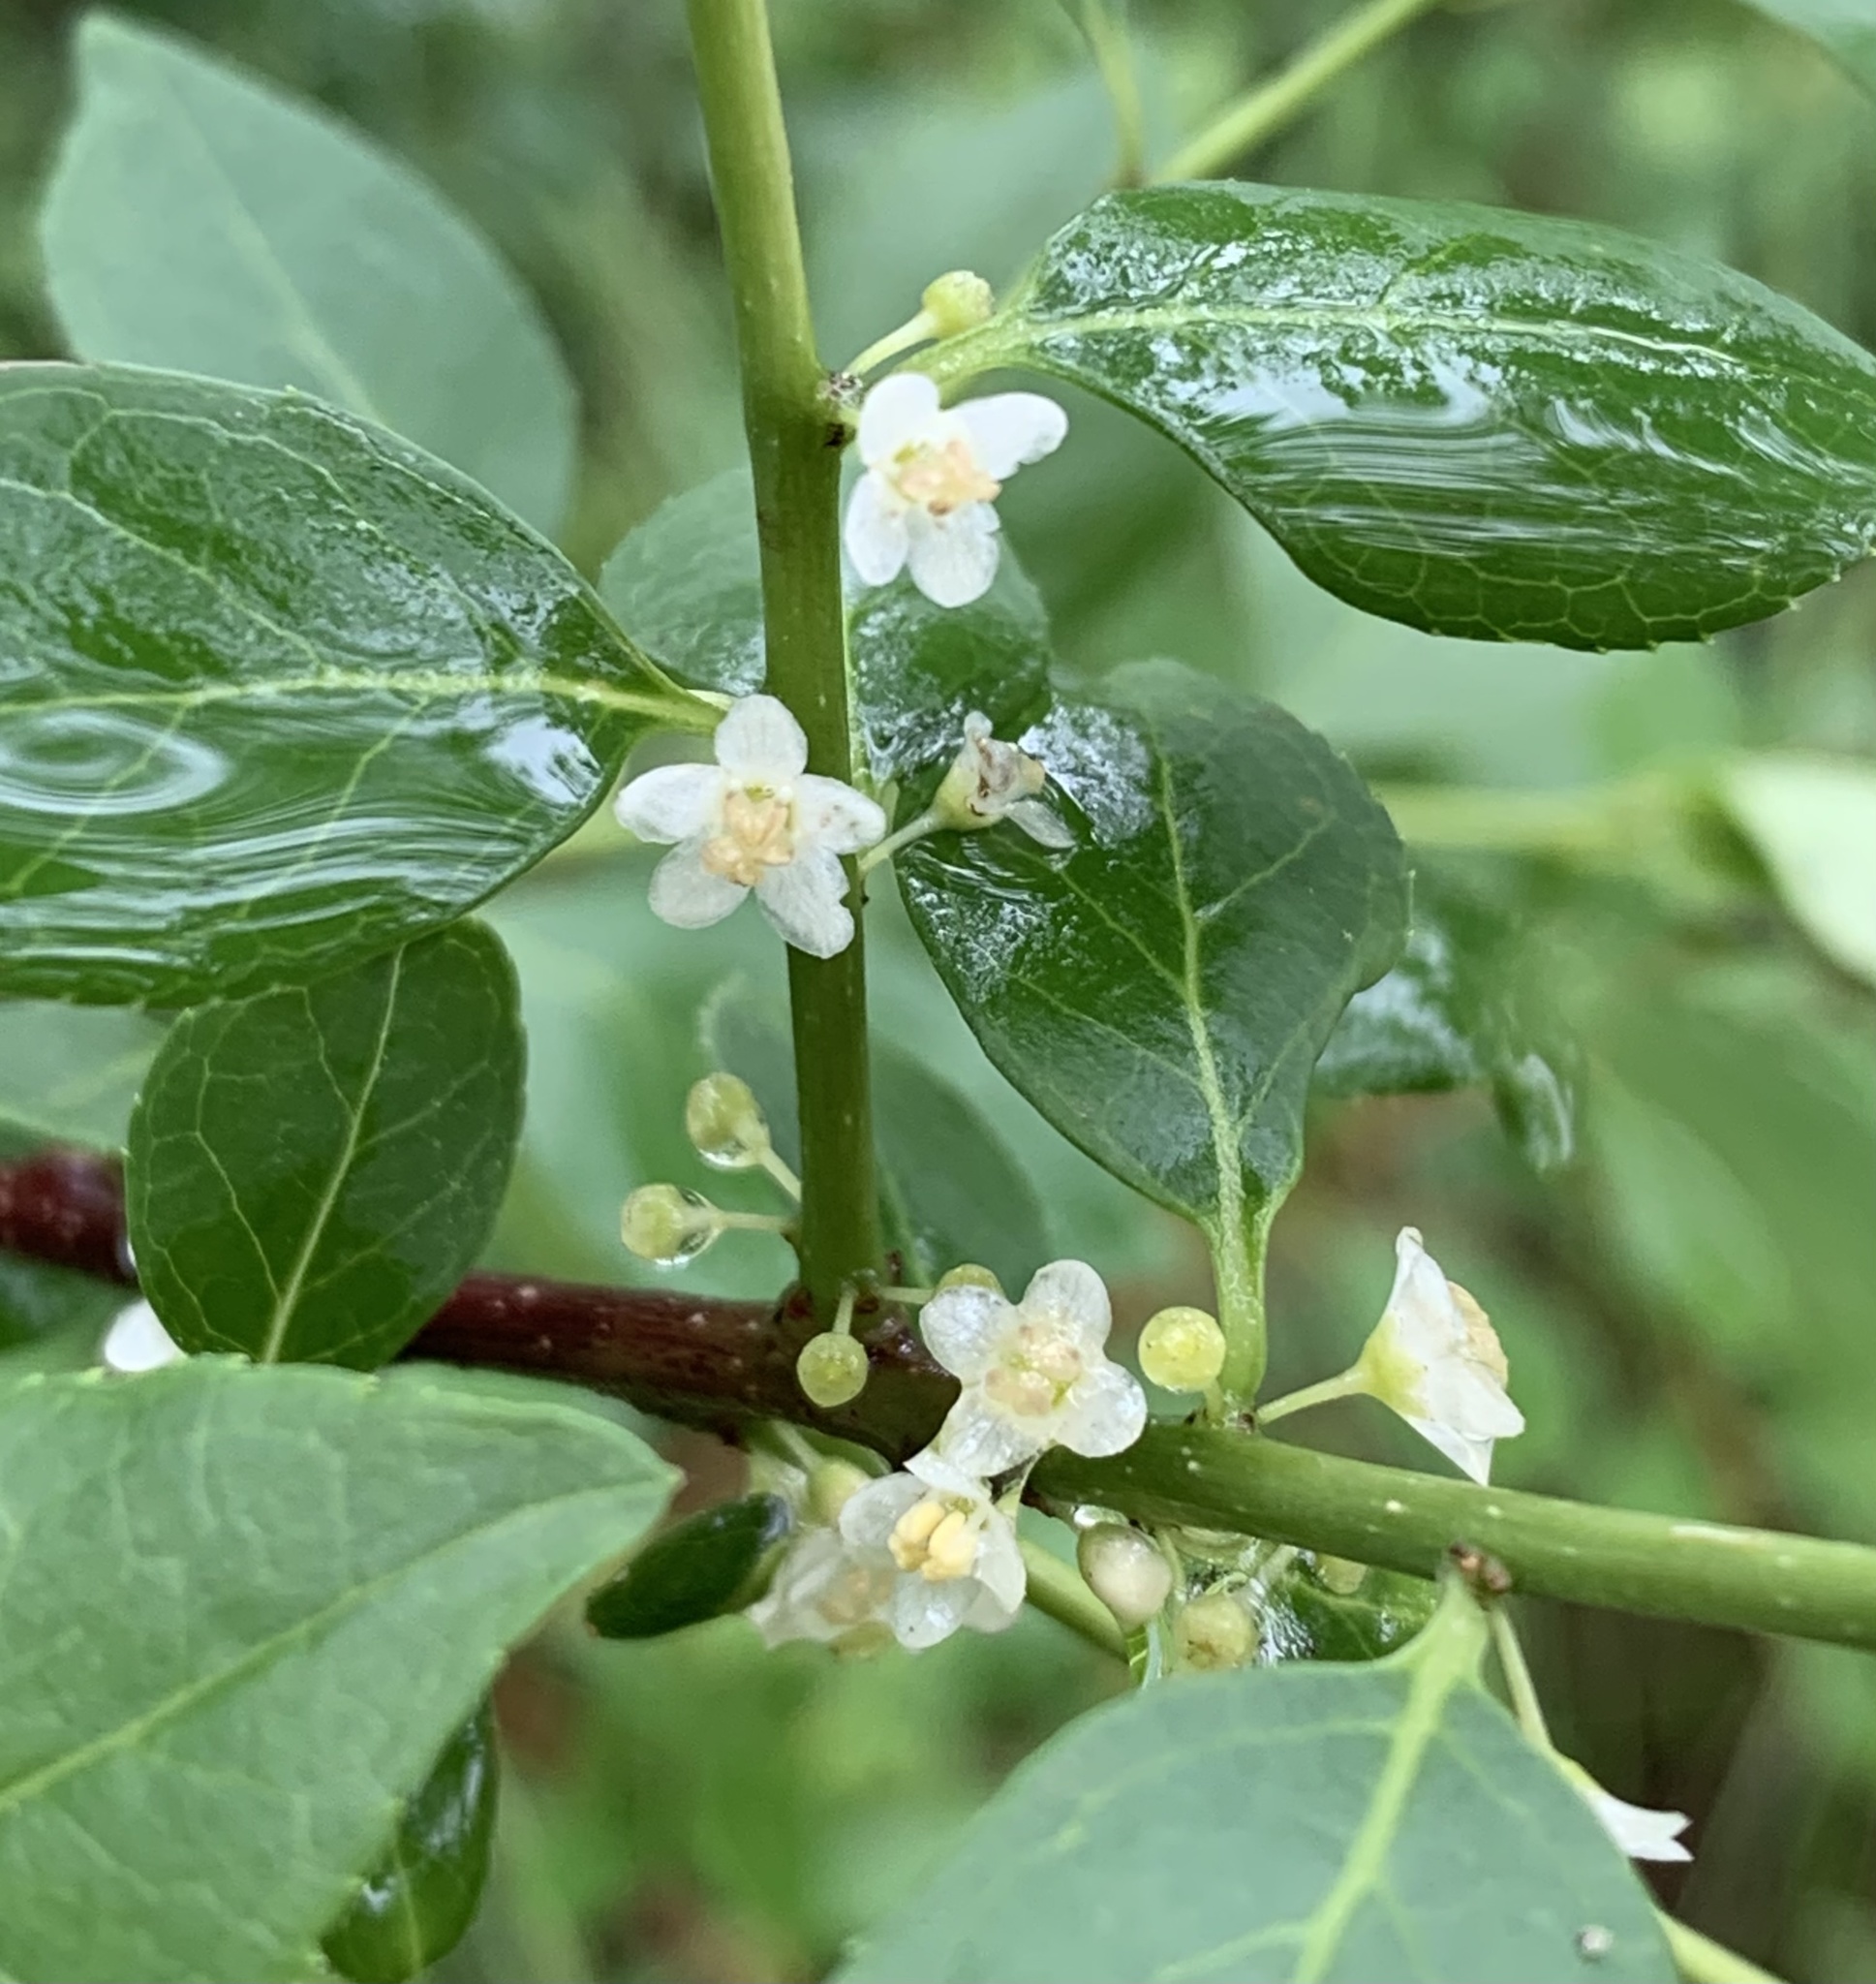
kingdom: Plantae
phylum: Tracheophyta
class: Magnoliopsida
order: Aquifoliales
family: Aquifoliaceae
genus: Ilex
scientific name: Ilex ambigua
